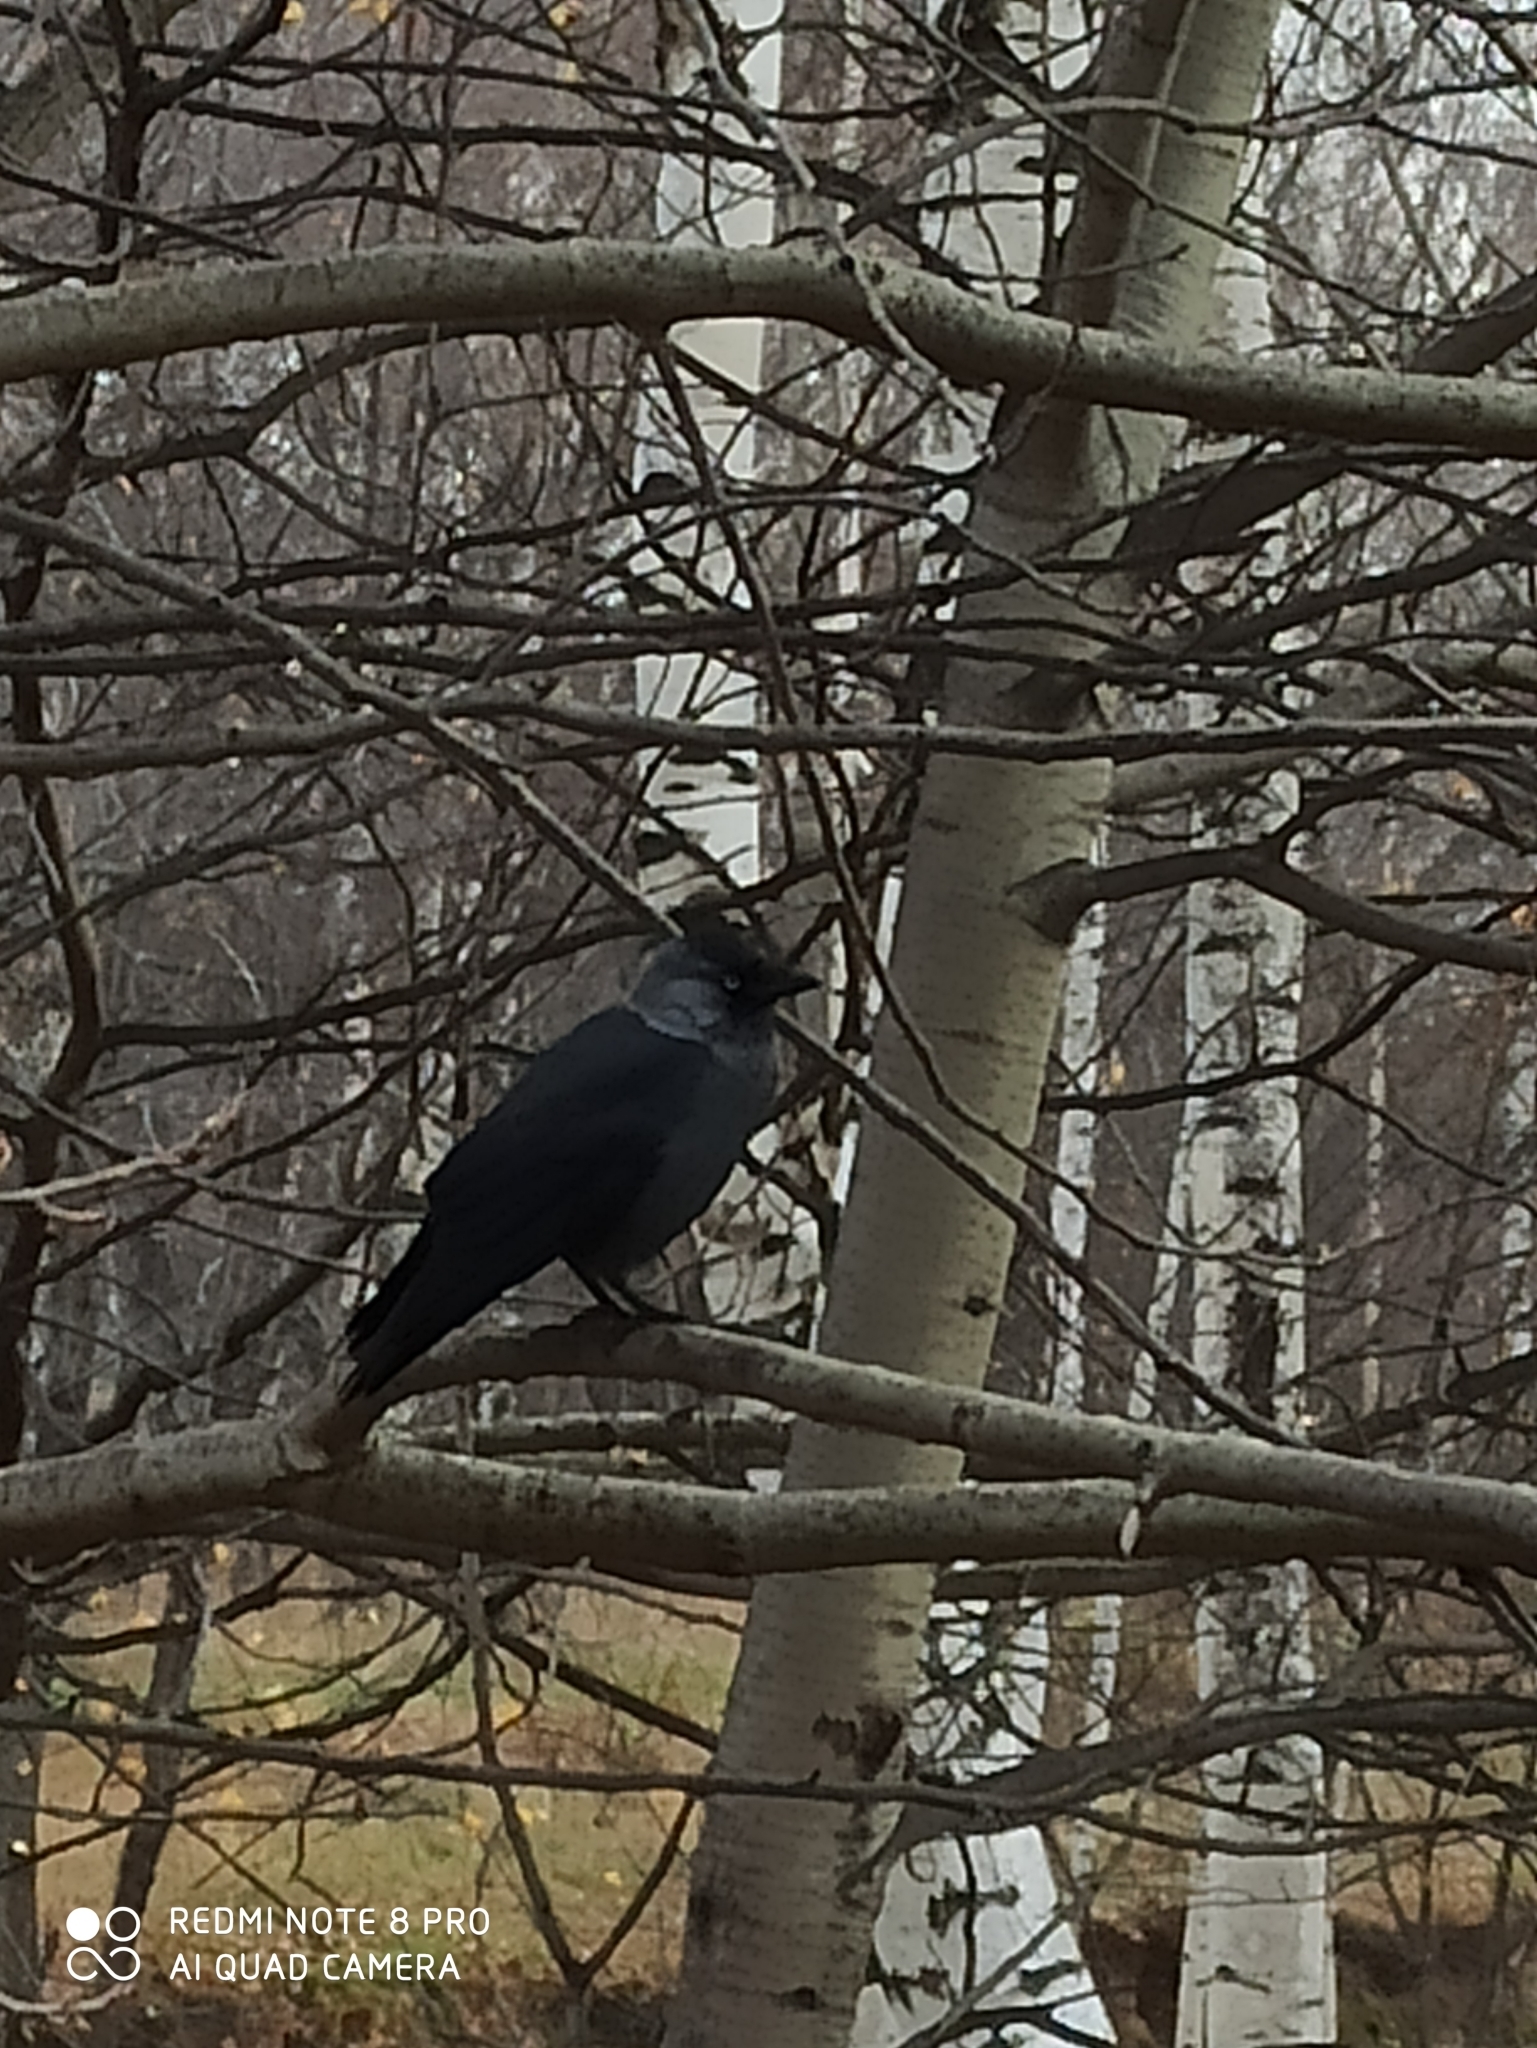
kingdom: Animalia
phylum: Chordata
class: Aves
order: Passeriformes
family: Corvidae
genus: Coloeus
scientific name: Coloeus monedula
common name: Western jackdaw
